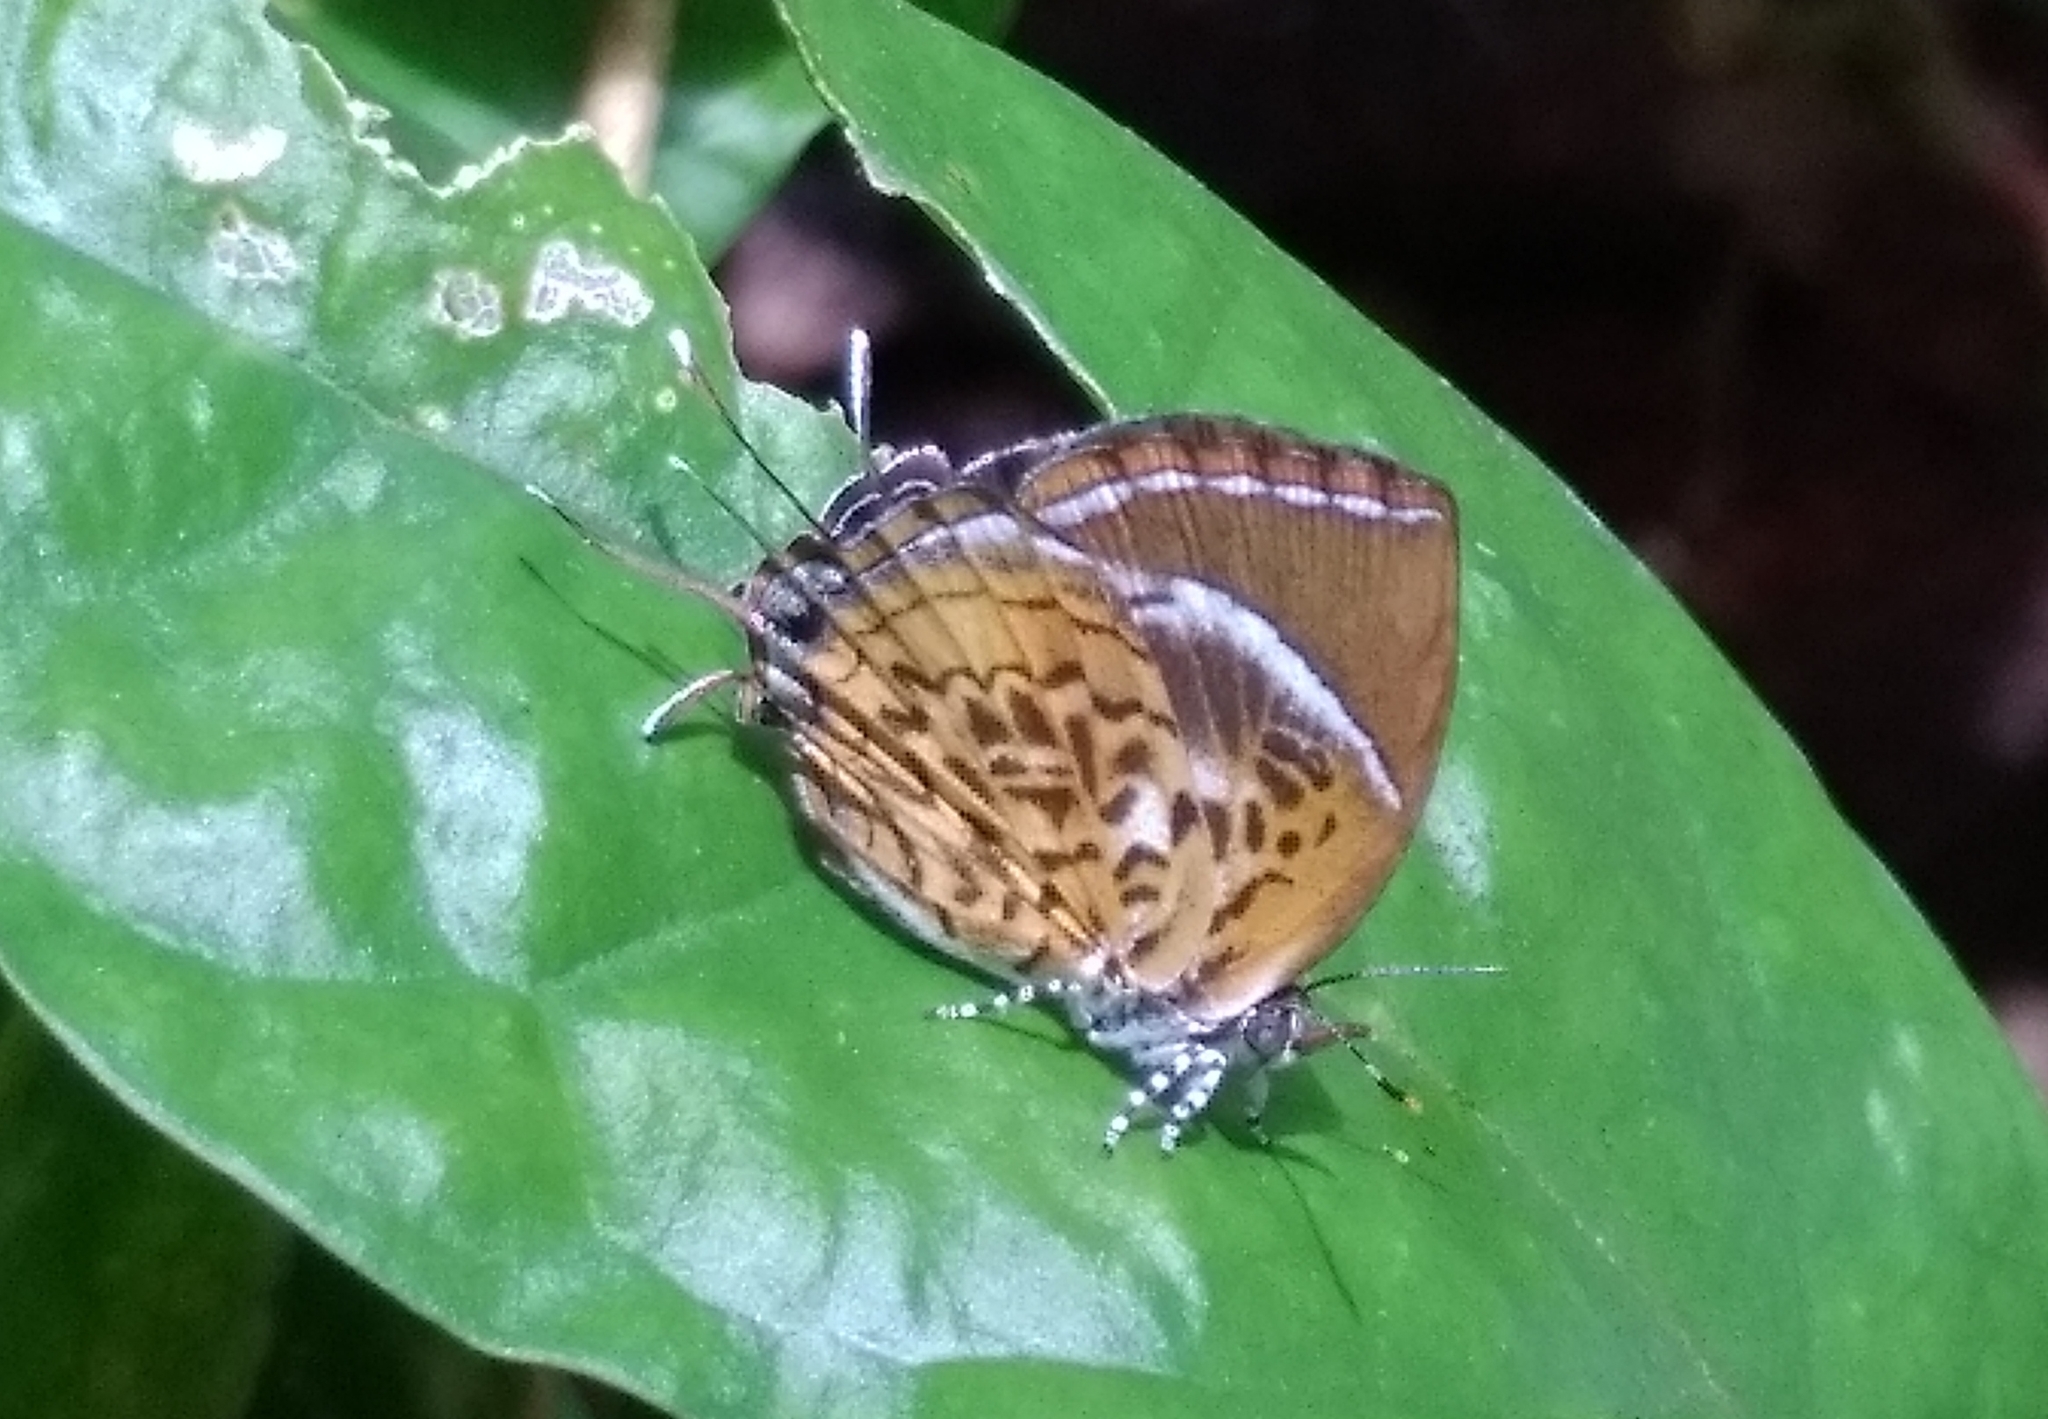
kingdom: Animalia
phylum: Arthropoda
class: Insecta
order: Lepidoptera
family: Lycaenidae
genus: Rathinda
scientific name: Rathinda amor
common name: Monkey puzzle
